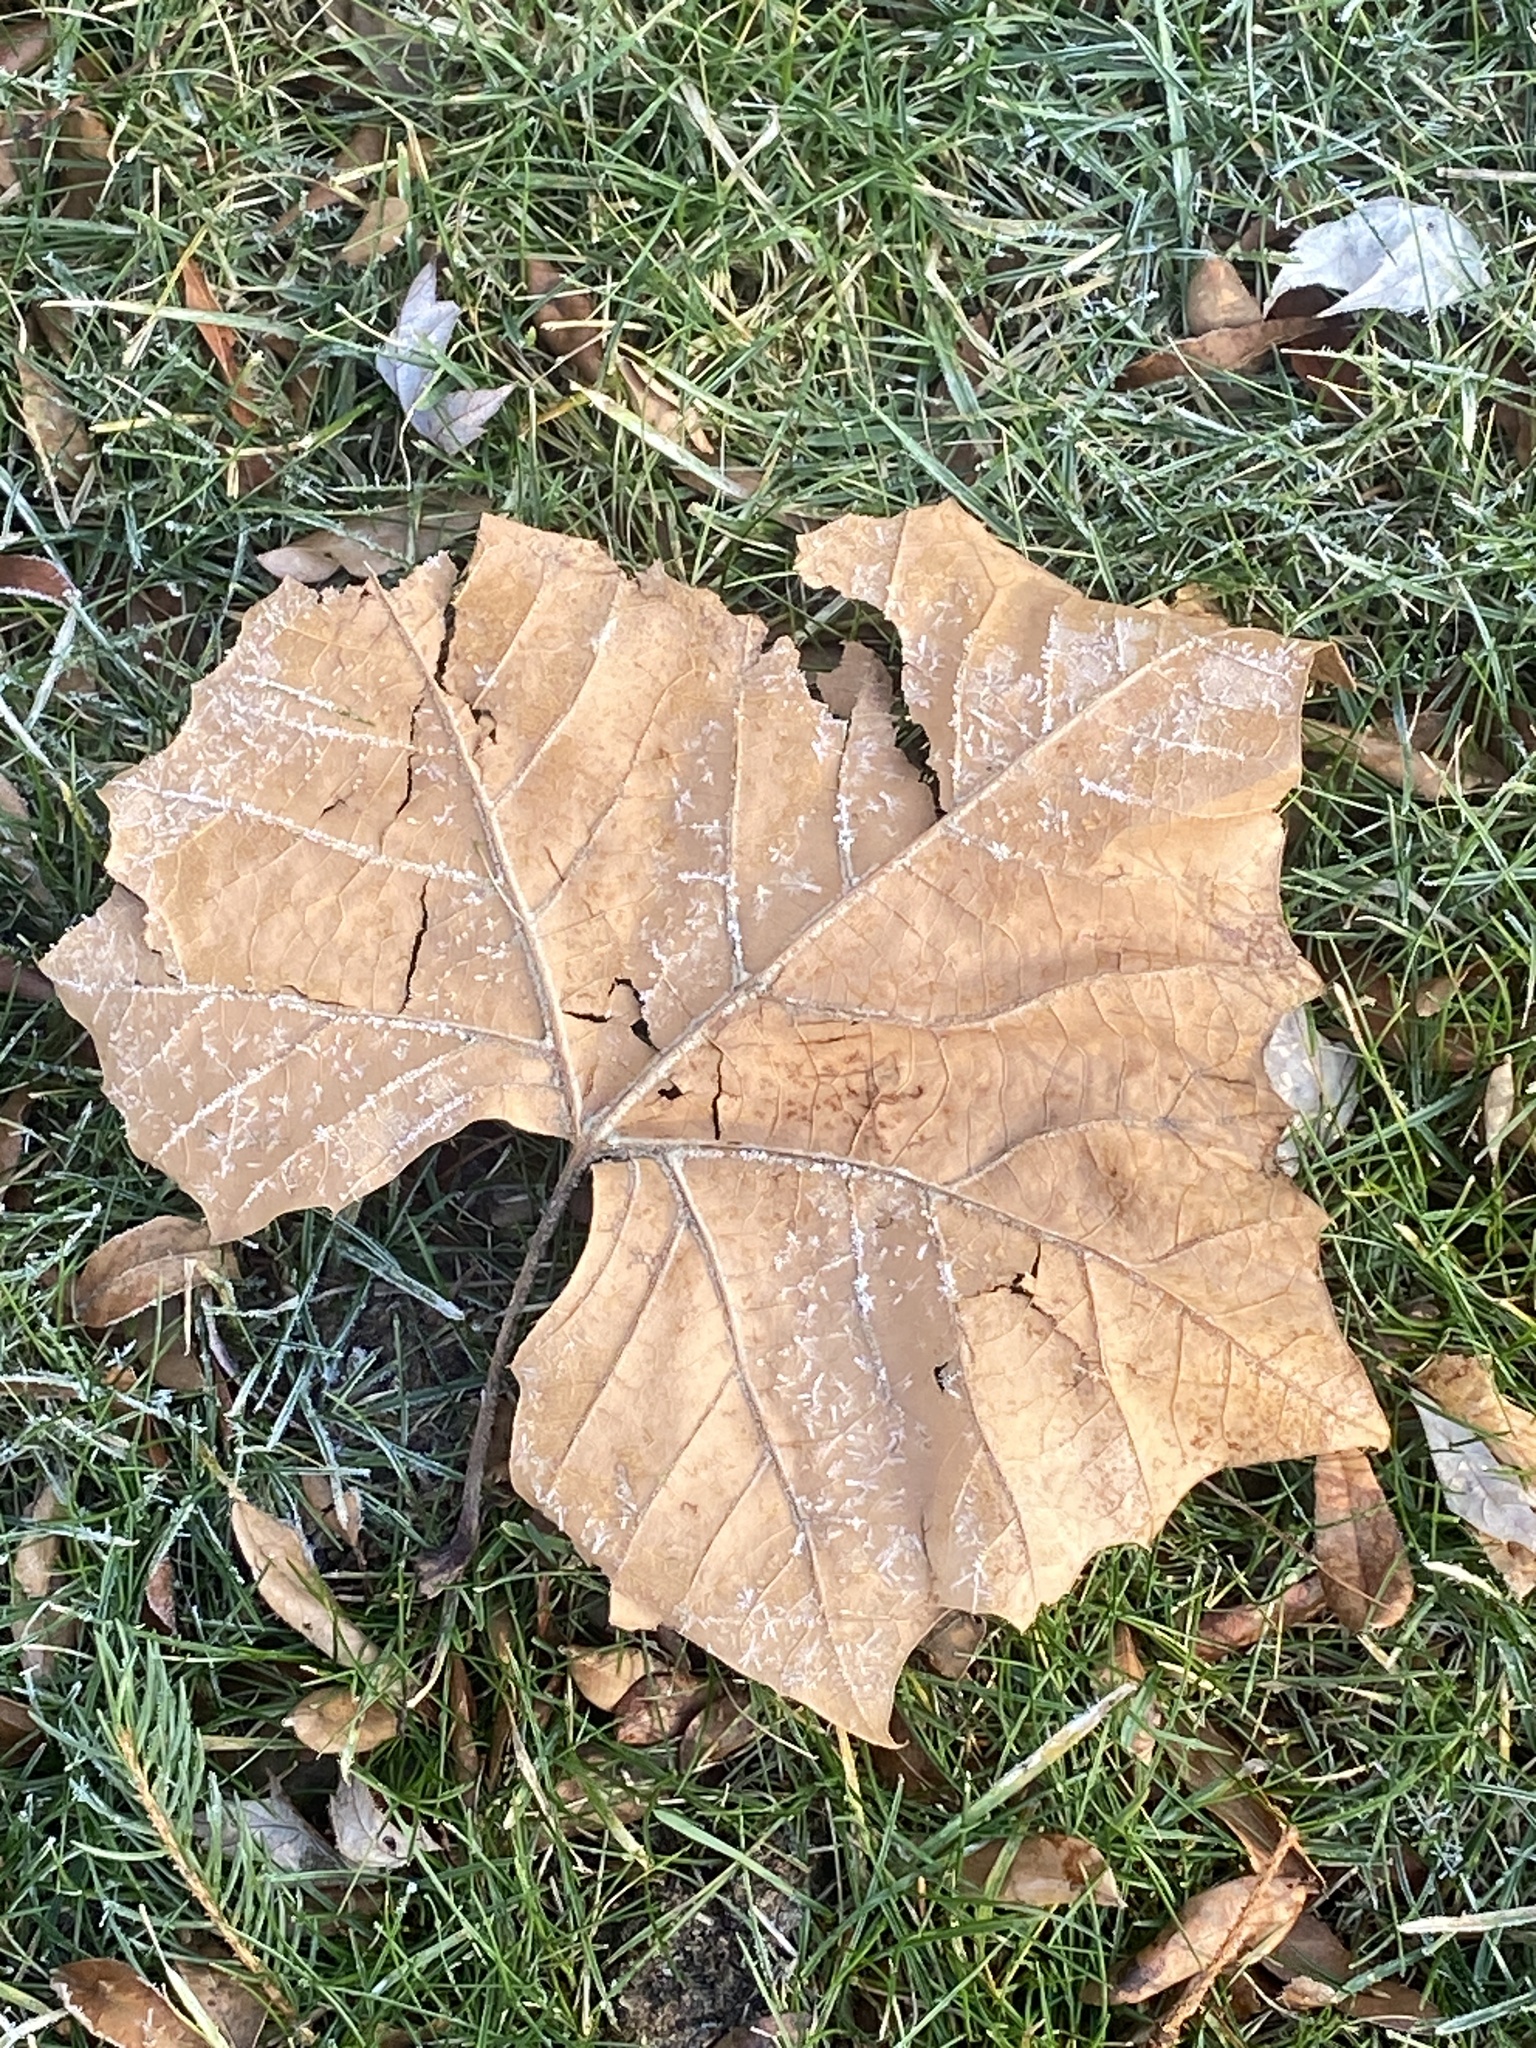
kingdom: Plantae
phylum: Tracheophyta
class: Magnoliopsida
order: Proteales
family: Platanaceae
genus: Platanus
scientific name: Platanus occidentalis
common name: American sycamore
